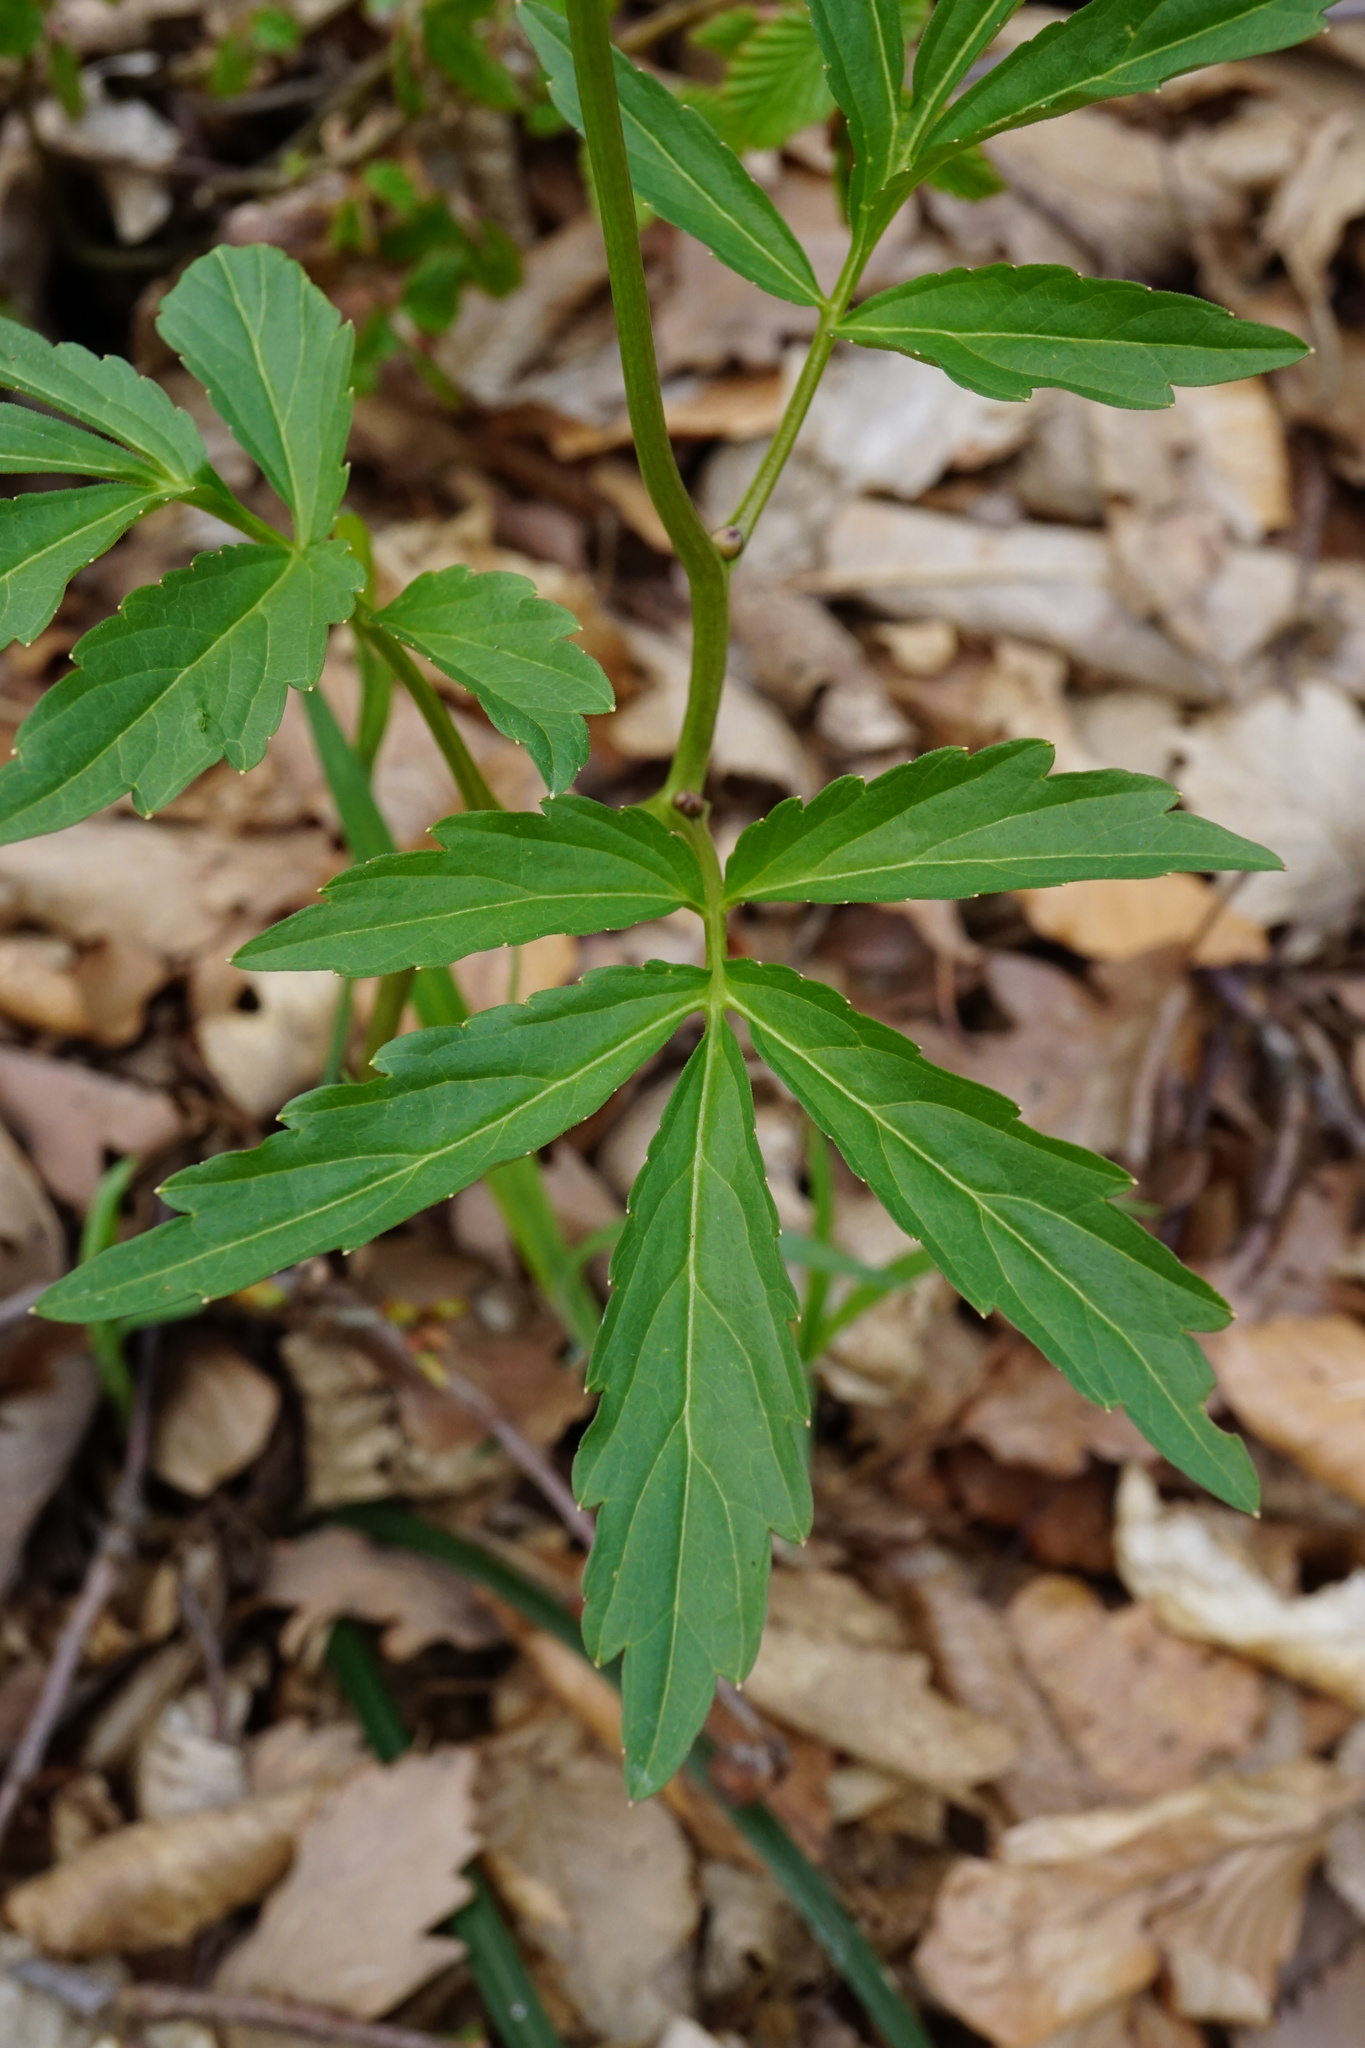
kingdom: Plantae
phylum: Tracheophyta
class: Magnoliopsida
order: Brassicales
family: Brassicaceae
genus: Cardamine
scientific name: Cardamine bulbifera
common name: Coralroot bittercress
